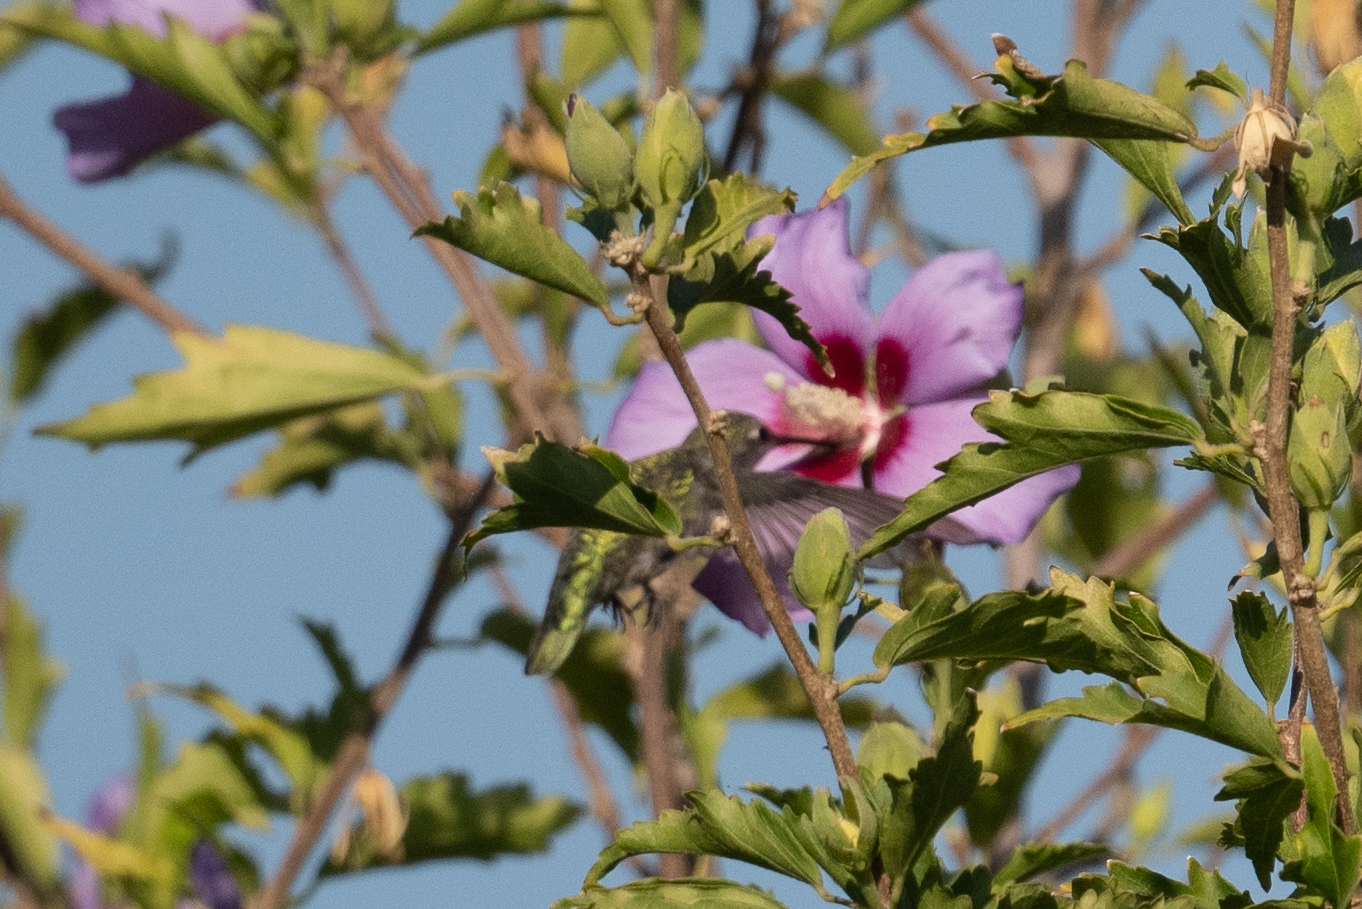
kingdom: Animalia
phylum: Chordata
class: Aves
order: Apodiformes
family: Trochilidae
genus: Calypte
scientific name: Calypte anna
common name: Anna's hummingbird
